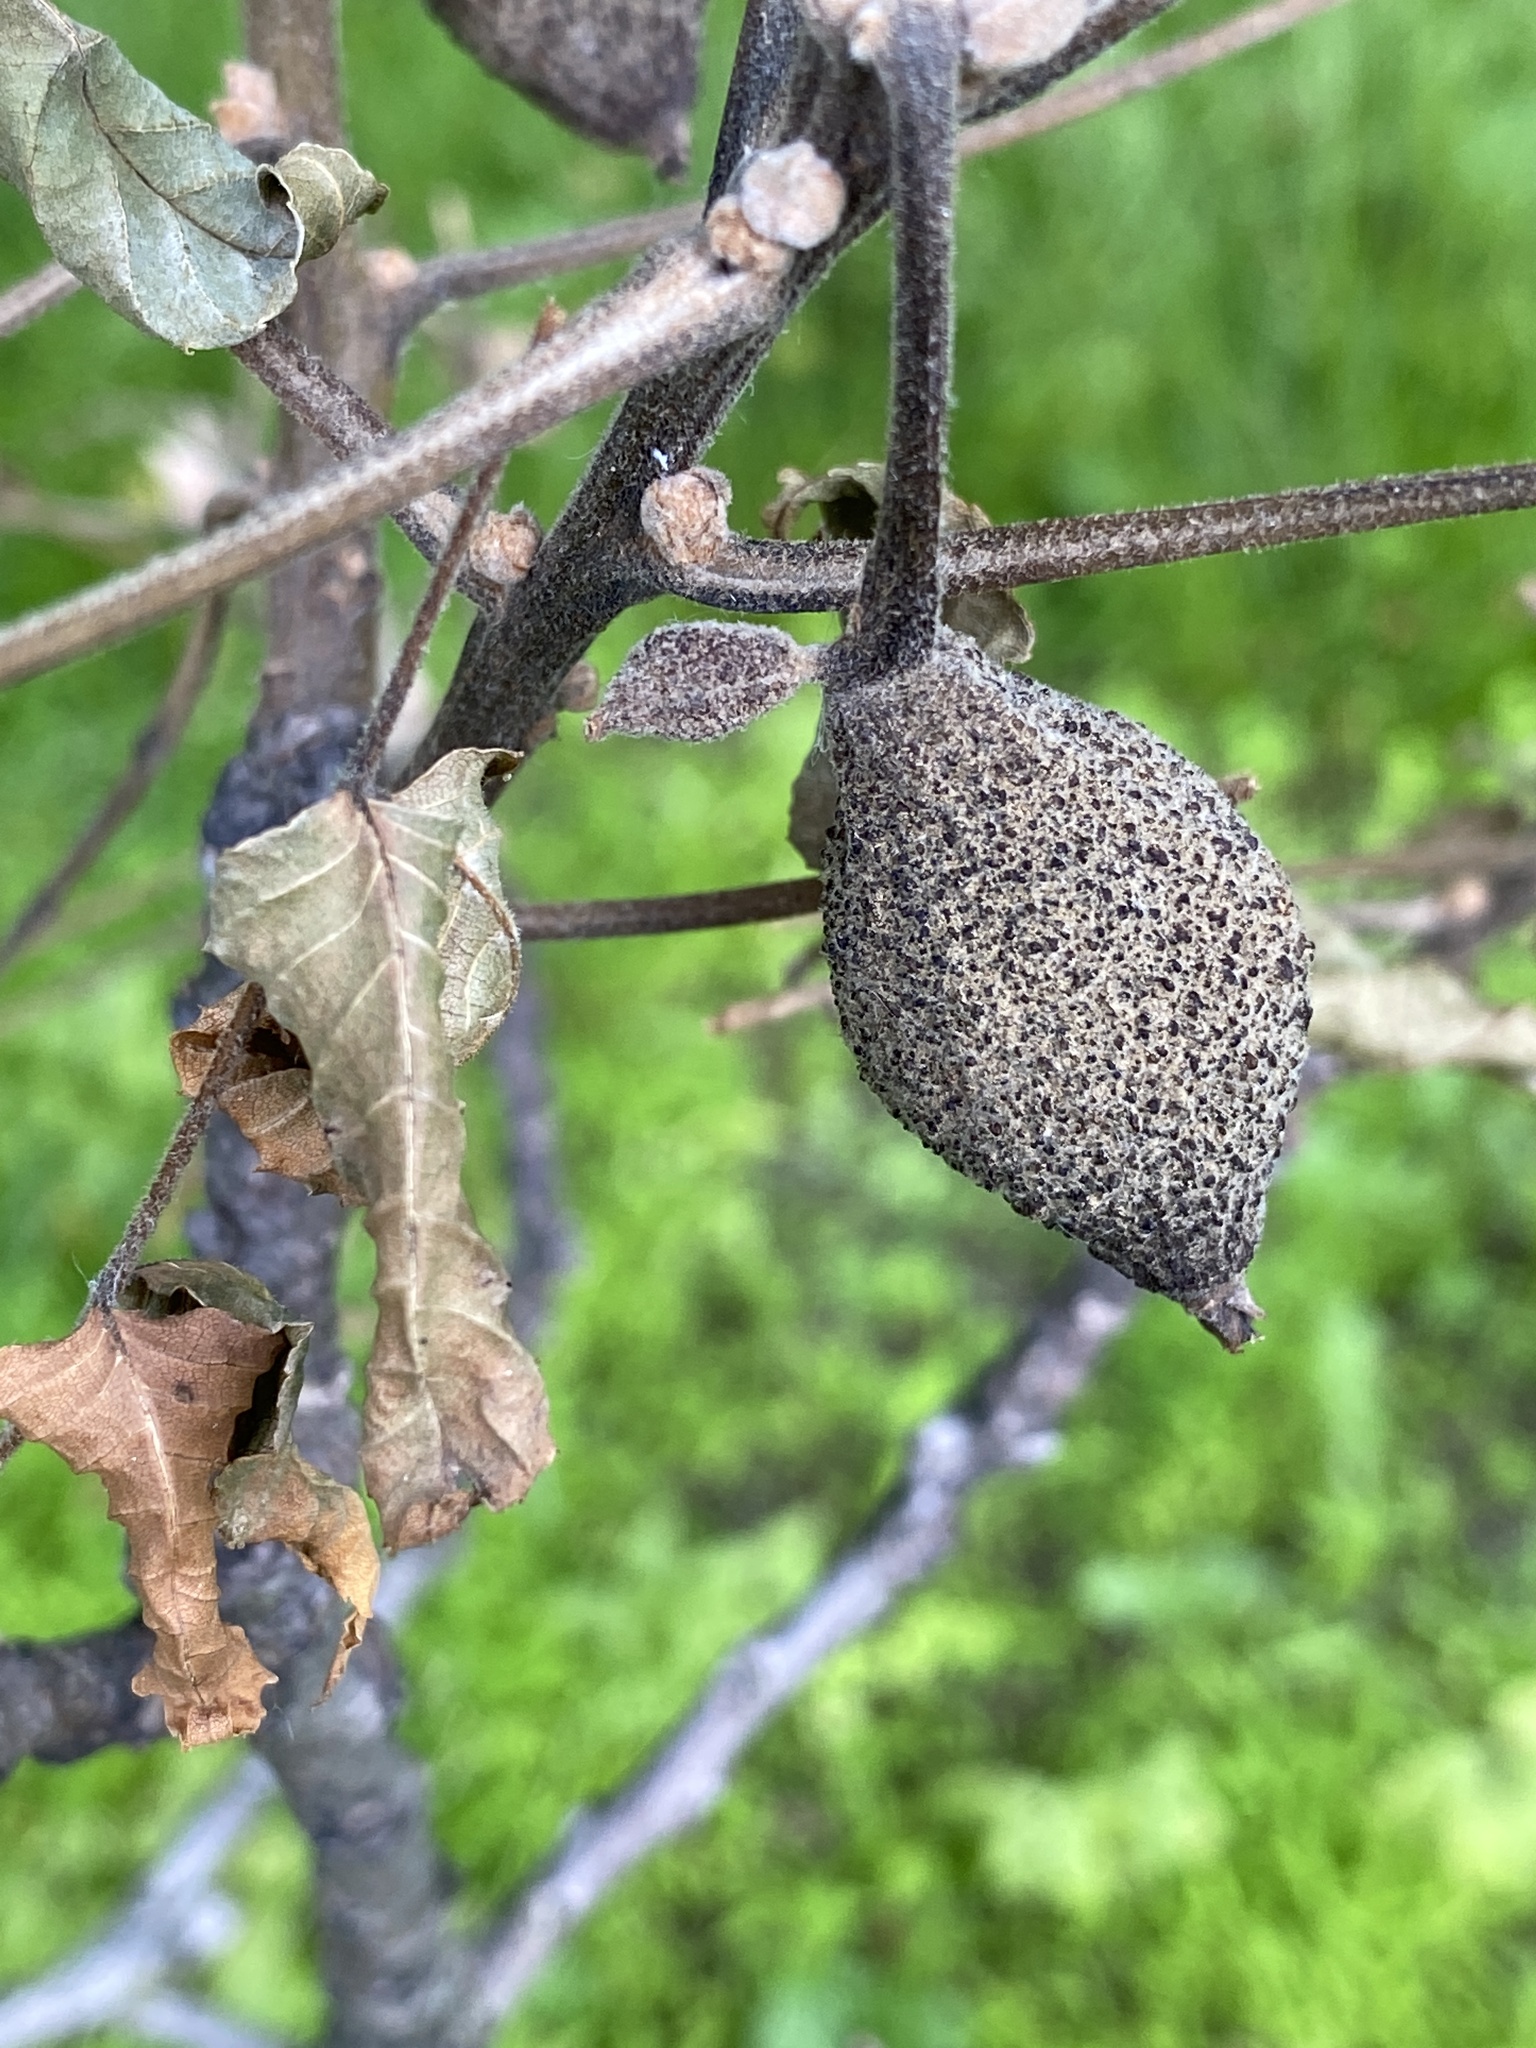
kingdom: Plantae
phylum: Tracheophyta
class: Magnoliopsida
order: Fagales
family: Juglandaceae
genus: Juglans
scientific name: Juglans nigra
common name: Black walnut
